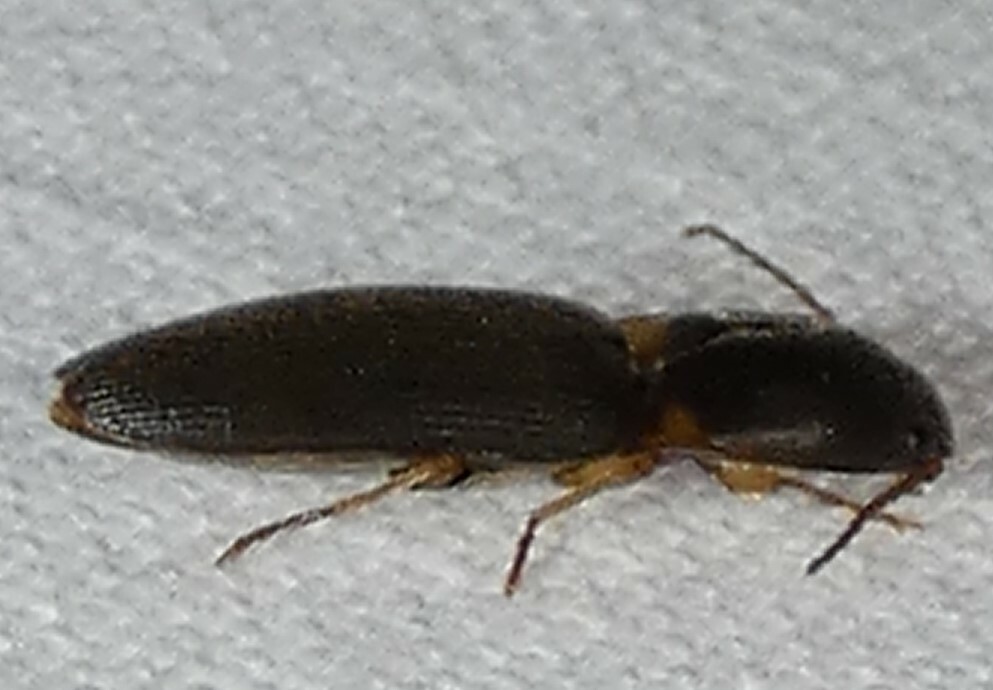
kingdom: Animalia
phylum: Arthropoda
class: Insecta
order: Coleoptera
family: Elateridae
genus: Monocrepidius
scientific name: Monocrepidius aversus
